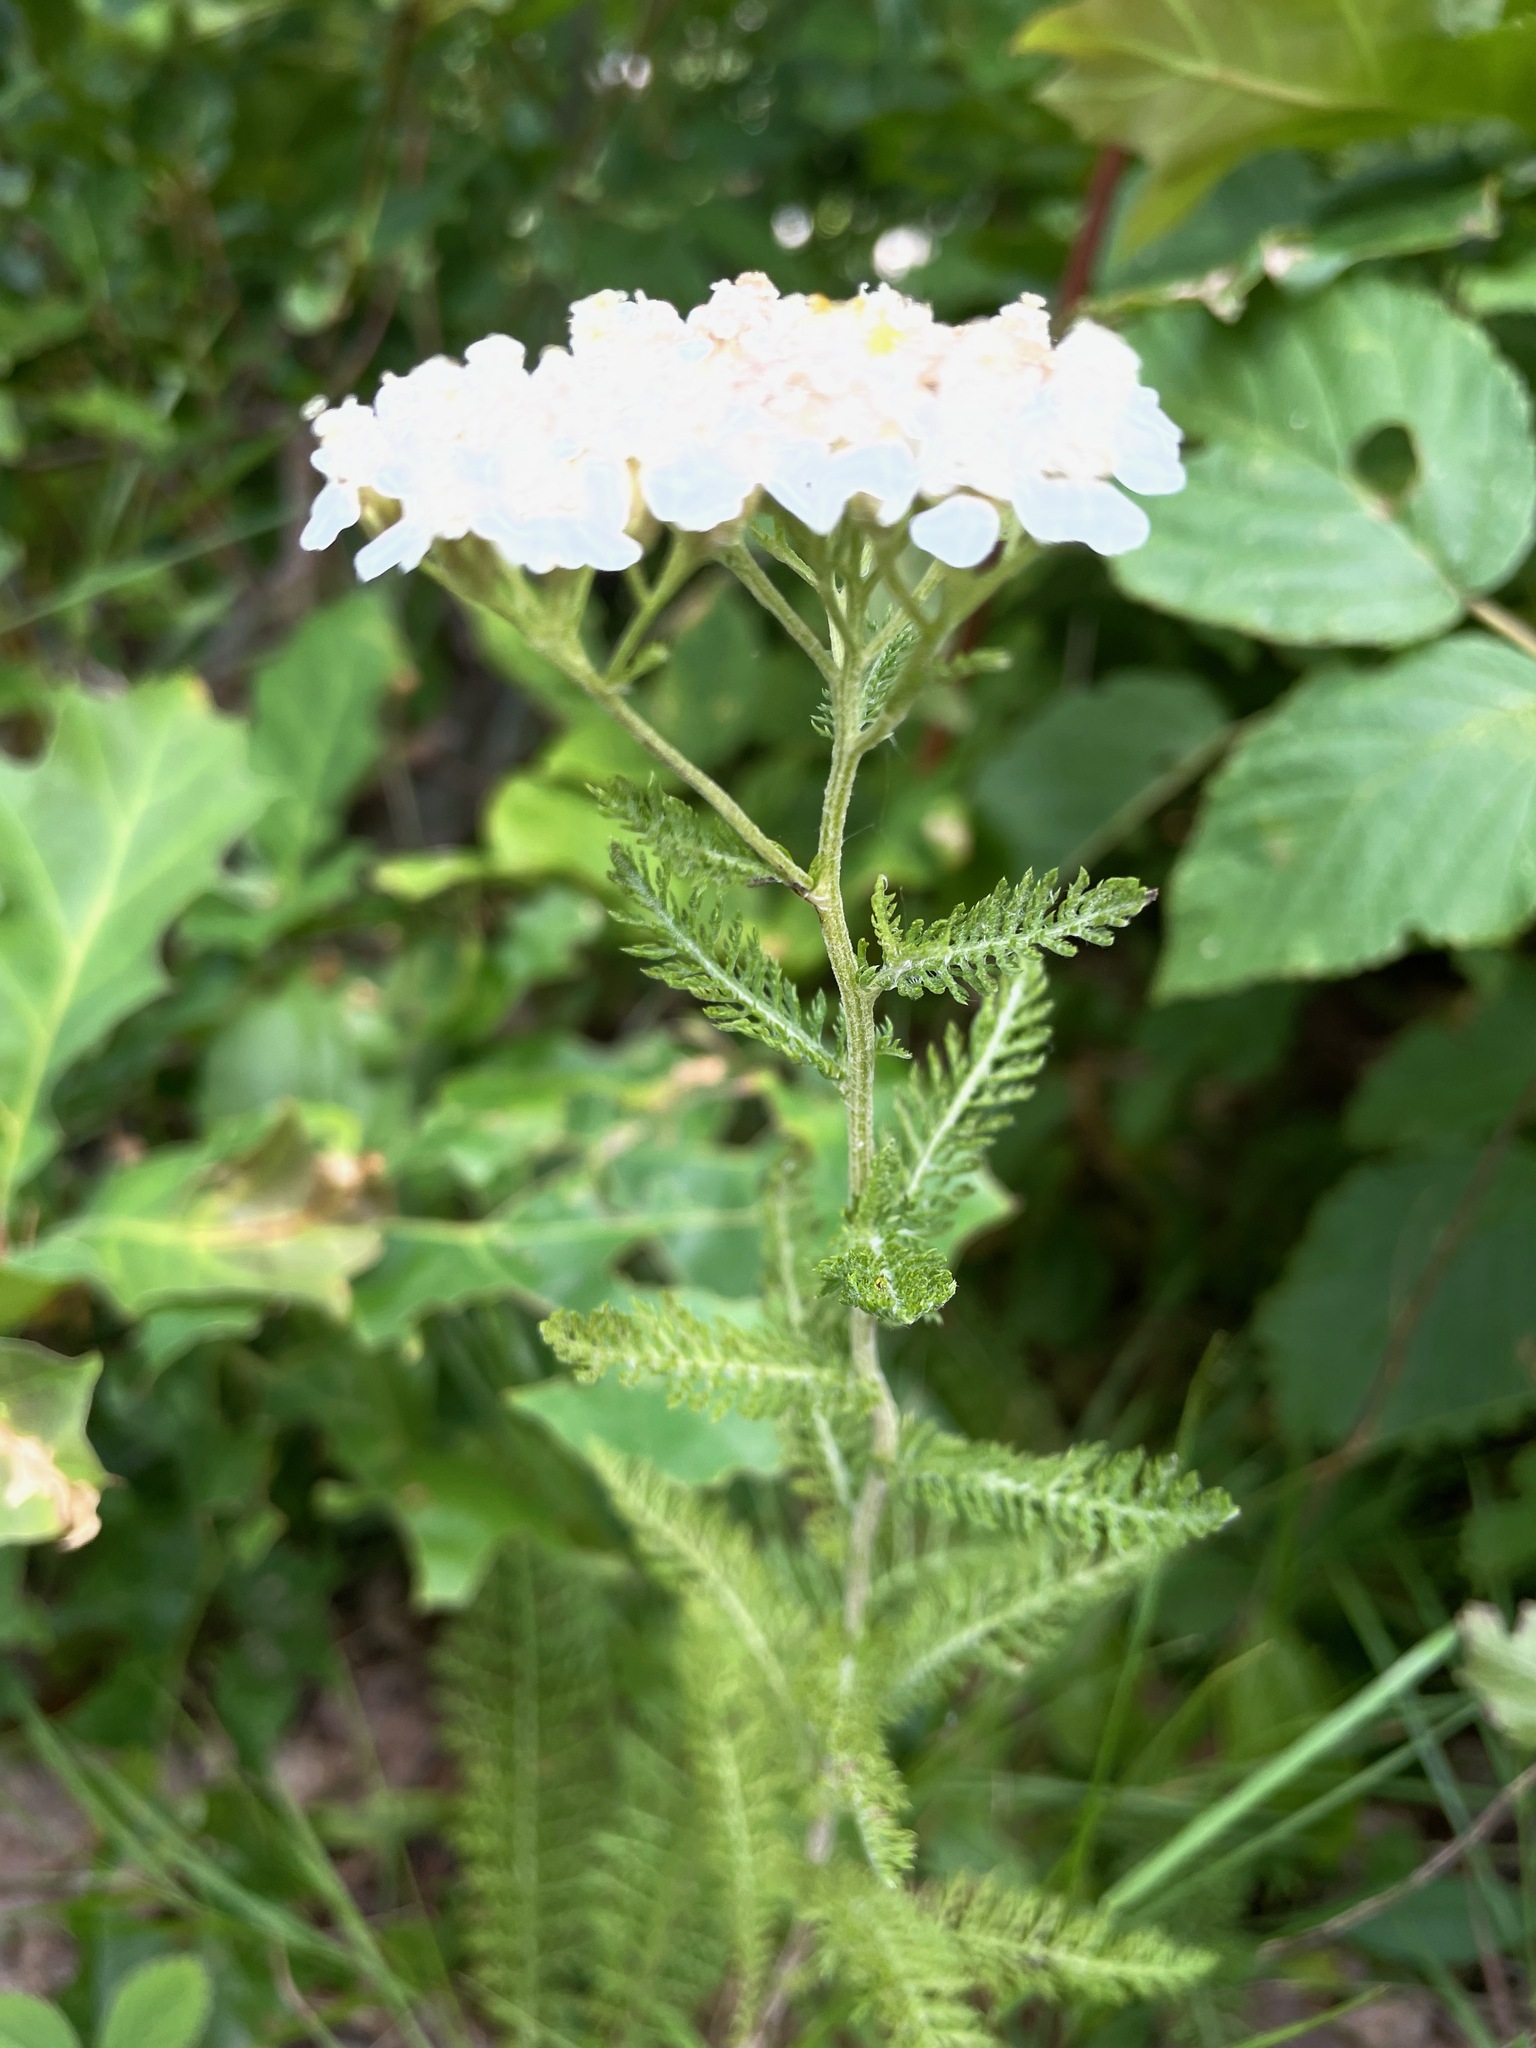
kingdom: Plantae
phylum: Tracheophyta
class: Magnoliopsida
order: Asterales
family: Asteraceae
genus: Achillea
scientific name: Achillea millefolium
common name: Yarrow
